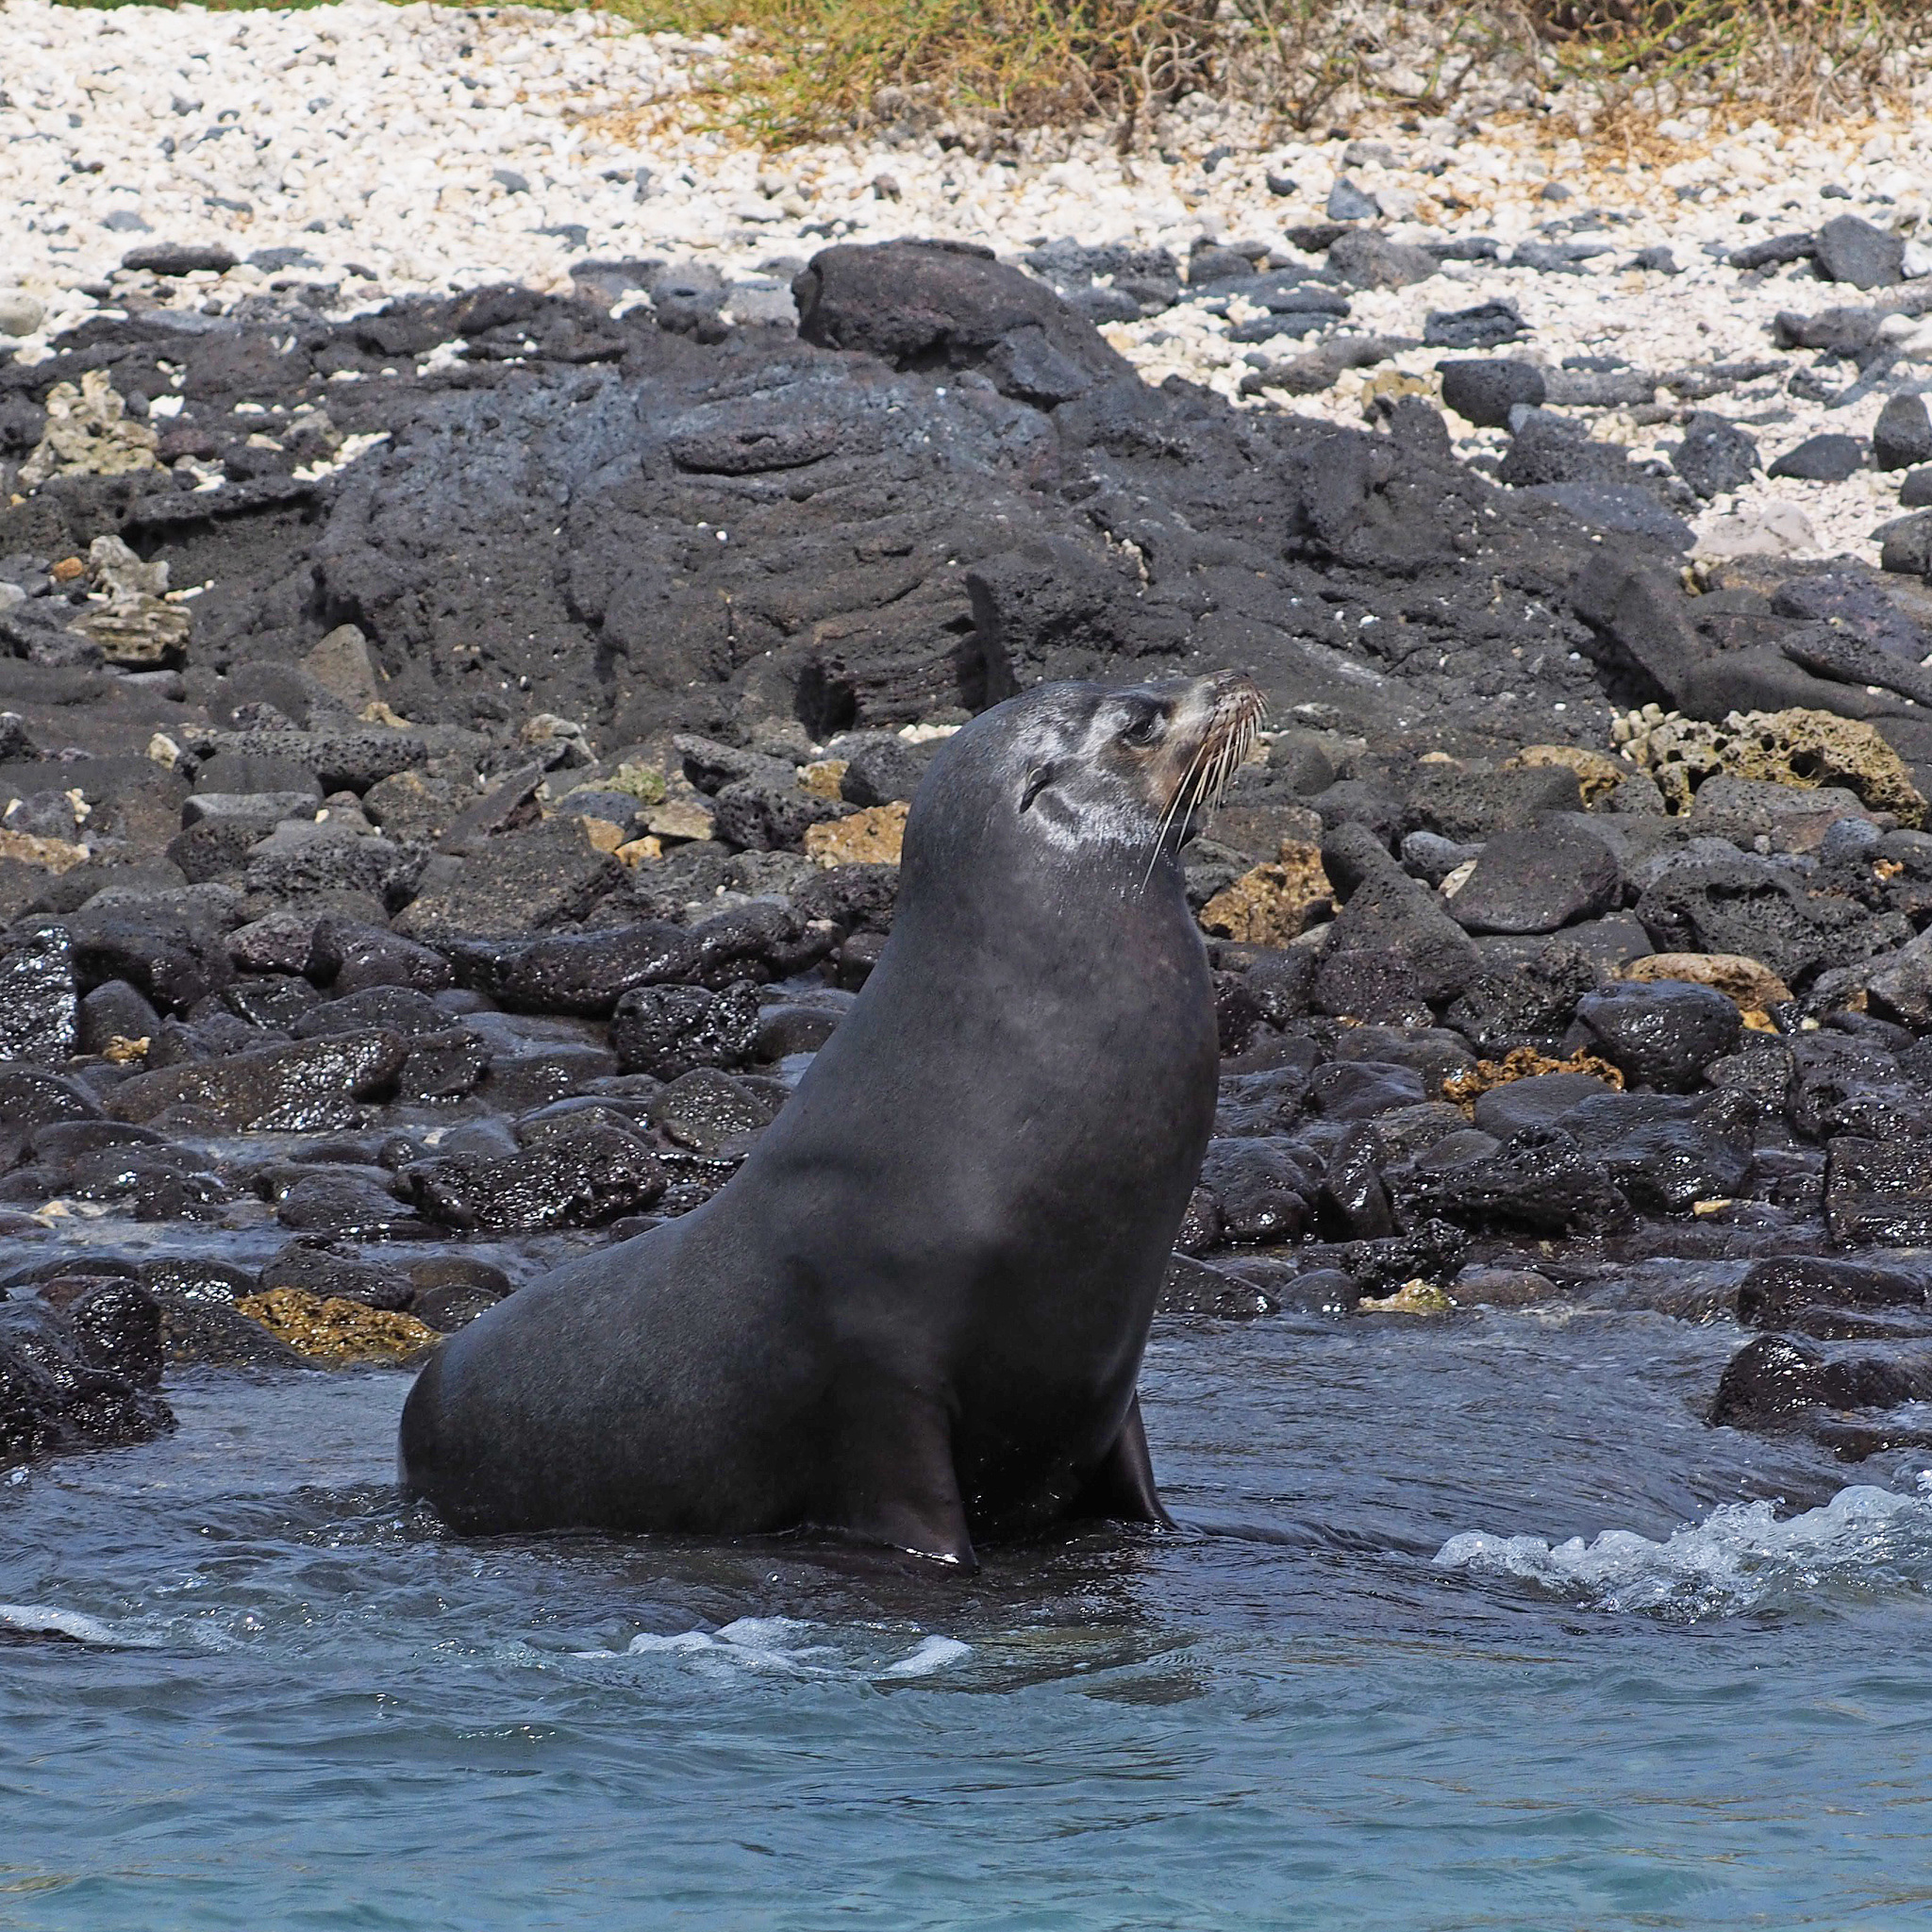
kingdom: Animalia
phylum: Chordata
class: Mammalia
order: Carnivora
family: Otariidae
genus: Zalophus
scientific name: Zalophus wollebaeki
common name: Galapagos sea lion
